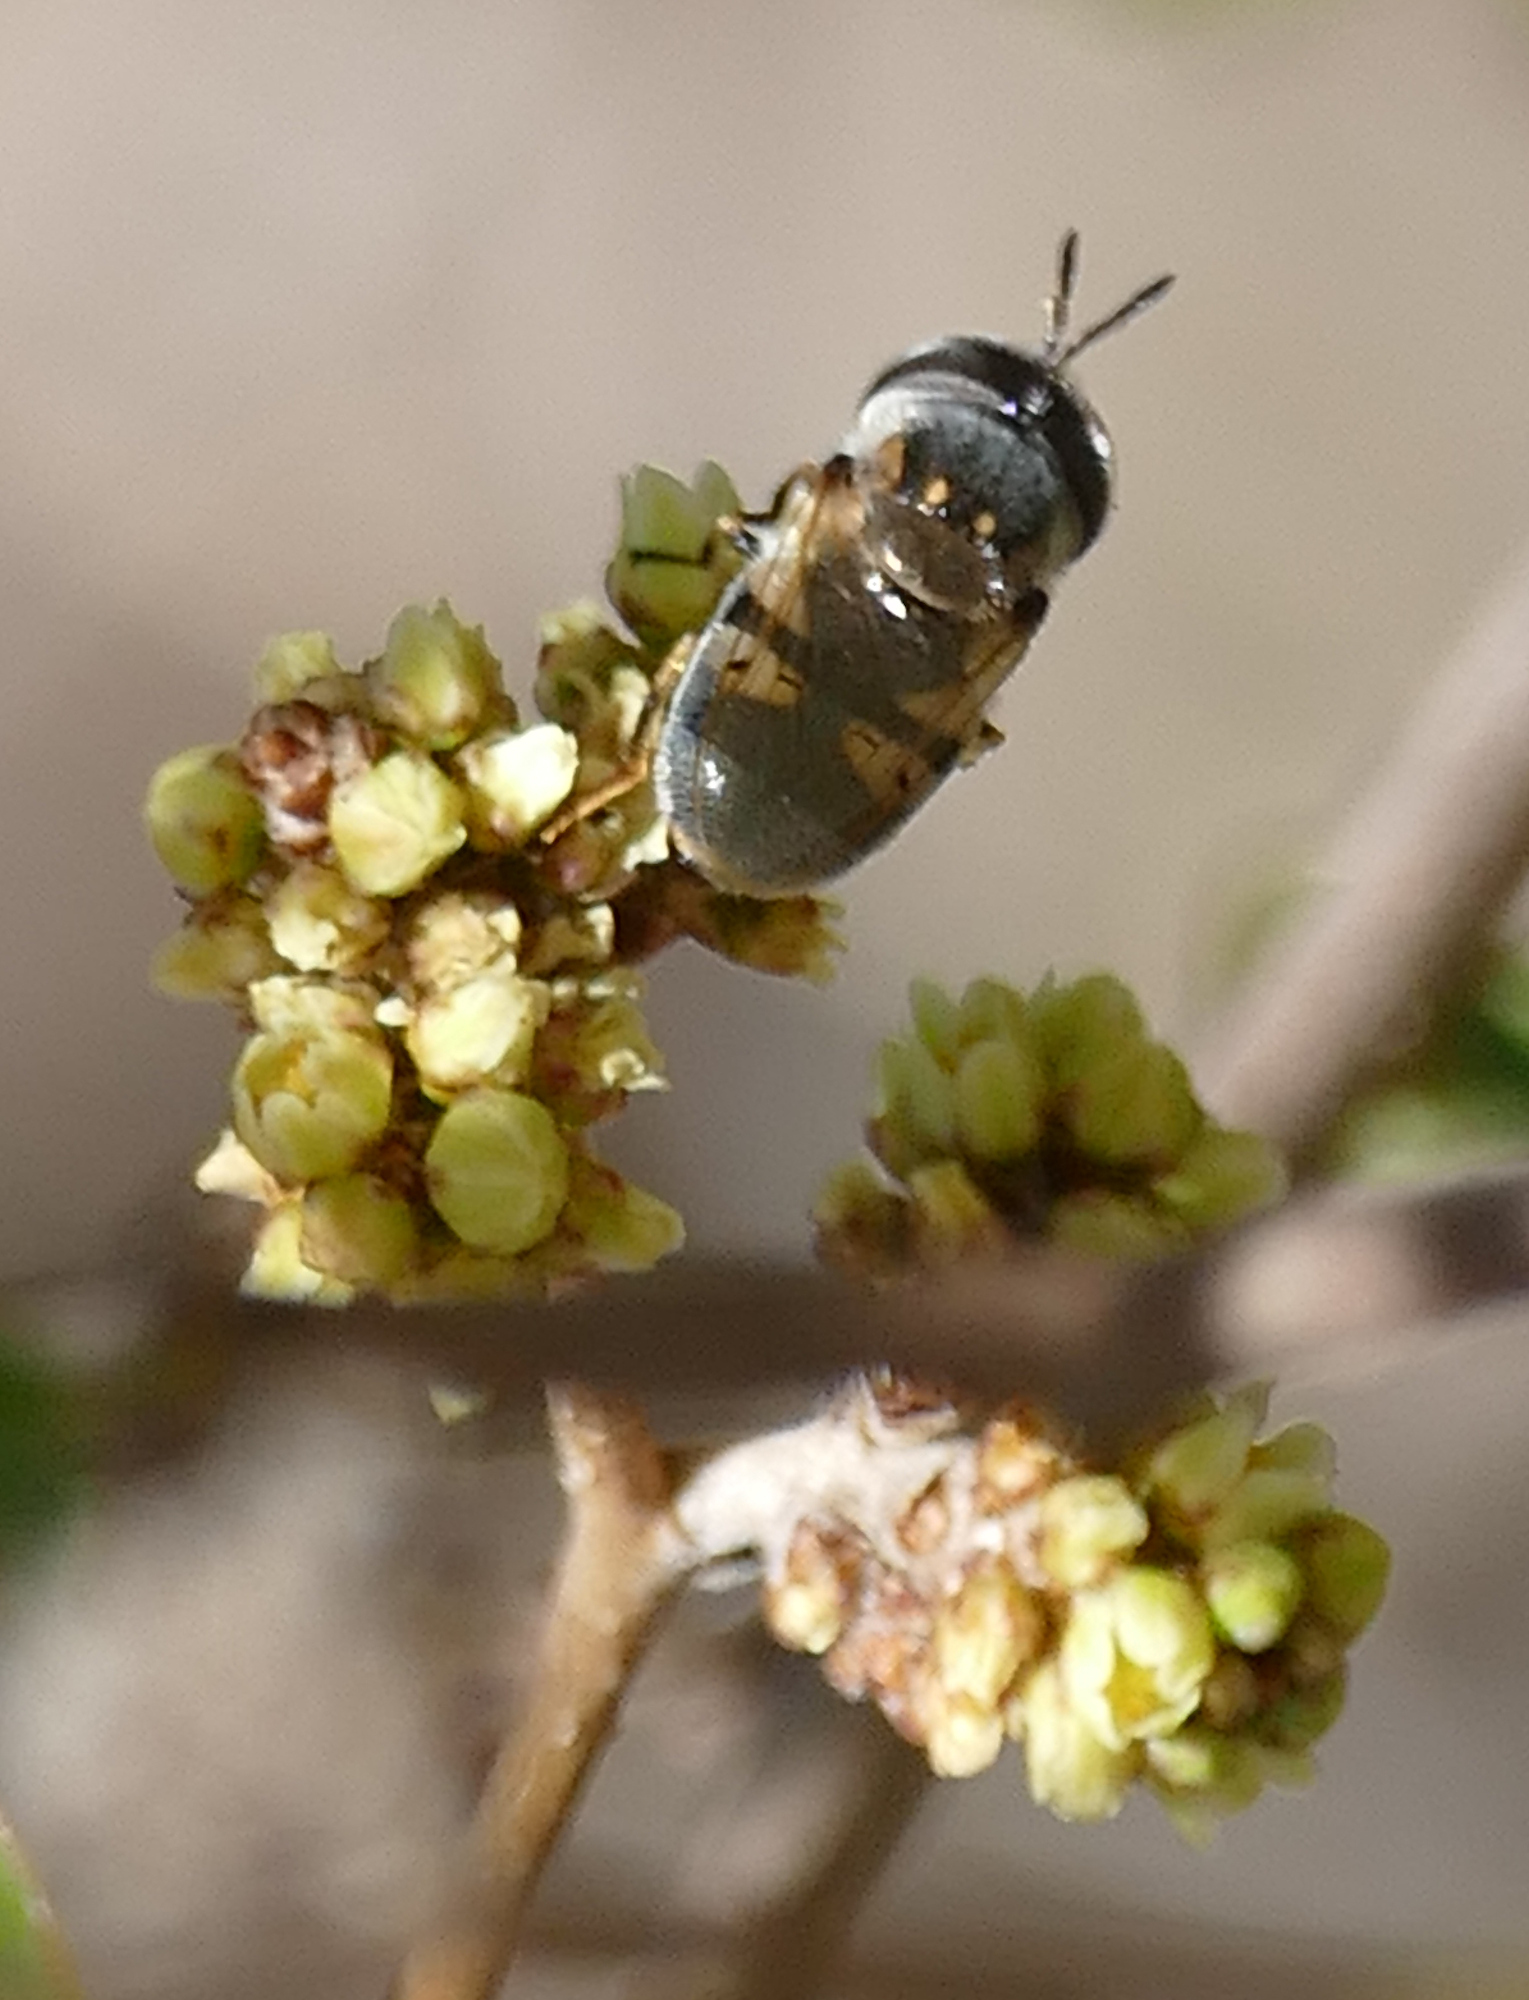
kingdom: Animalia
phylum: Arthropoda
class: Insecta
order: Diptera
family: Syrphidae
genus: Copestylum
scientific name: Copestylum caudatum
